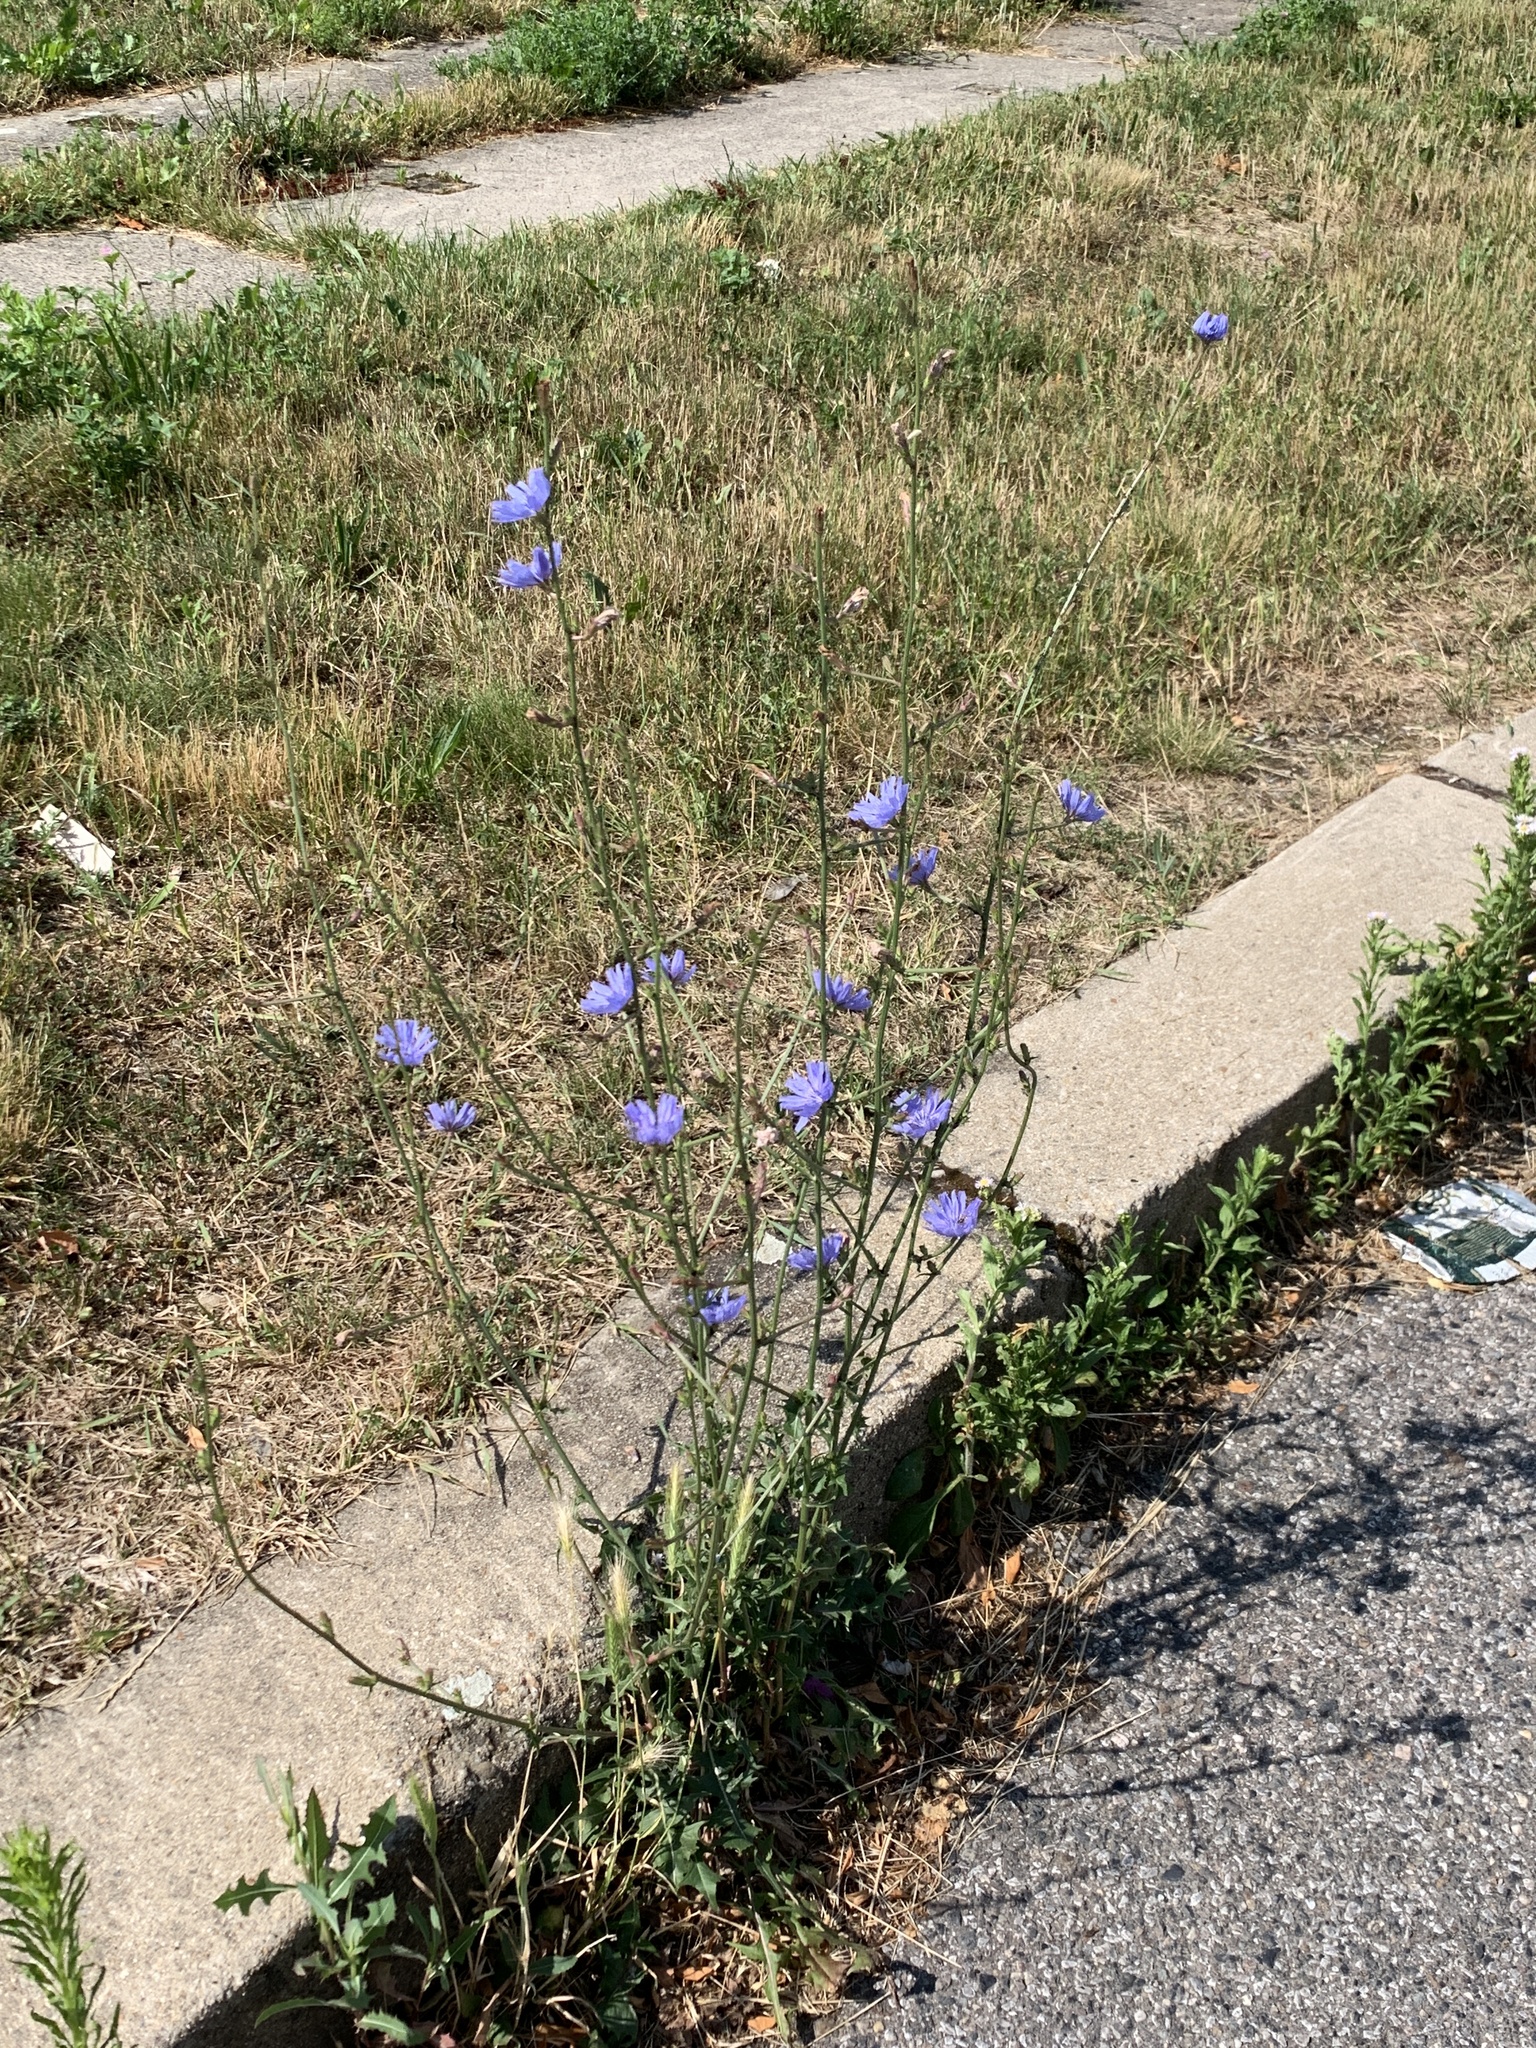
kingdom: Plantae
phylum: Tracheophyta
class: Magnoliopsida
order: Asterales
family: Asteraceae
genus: Cichorium
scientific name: Cichorium intybus
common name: Chicory
